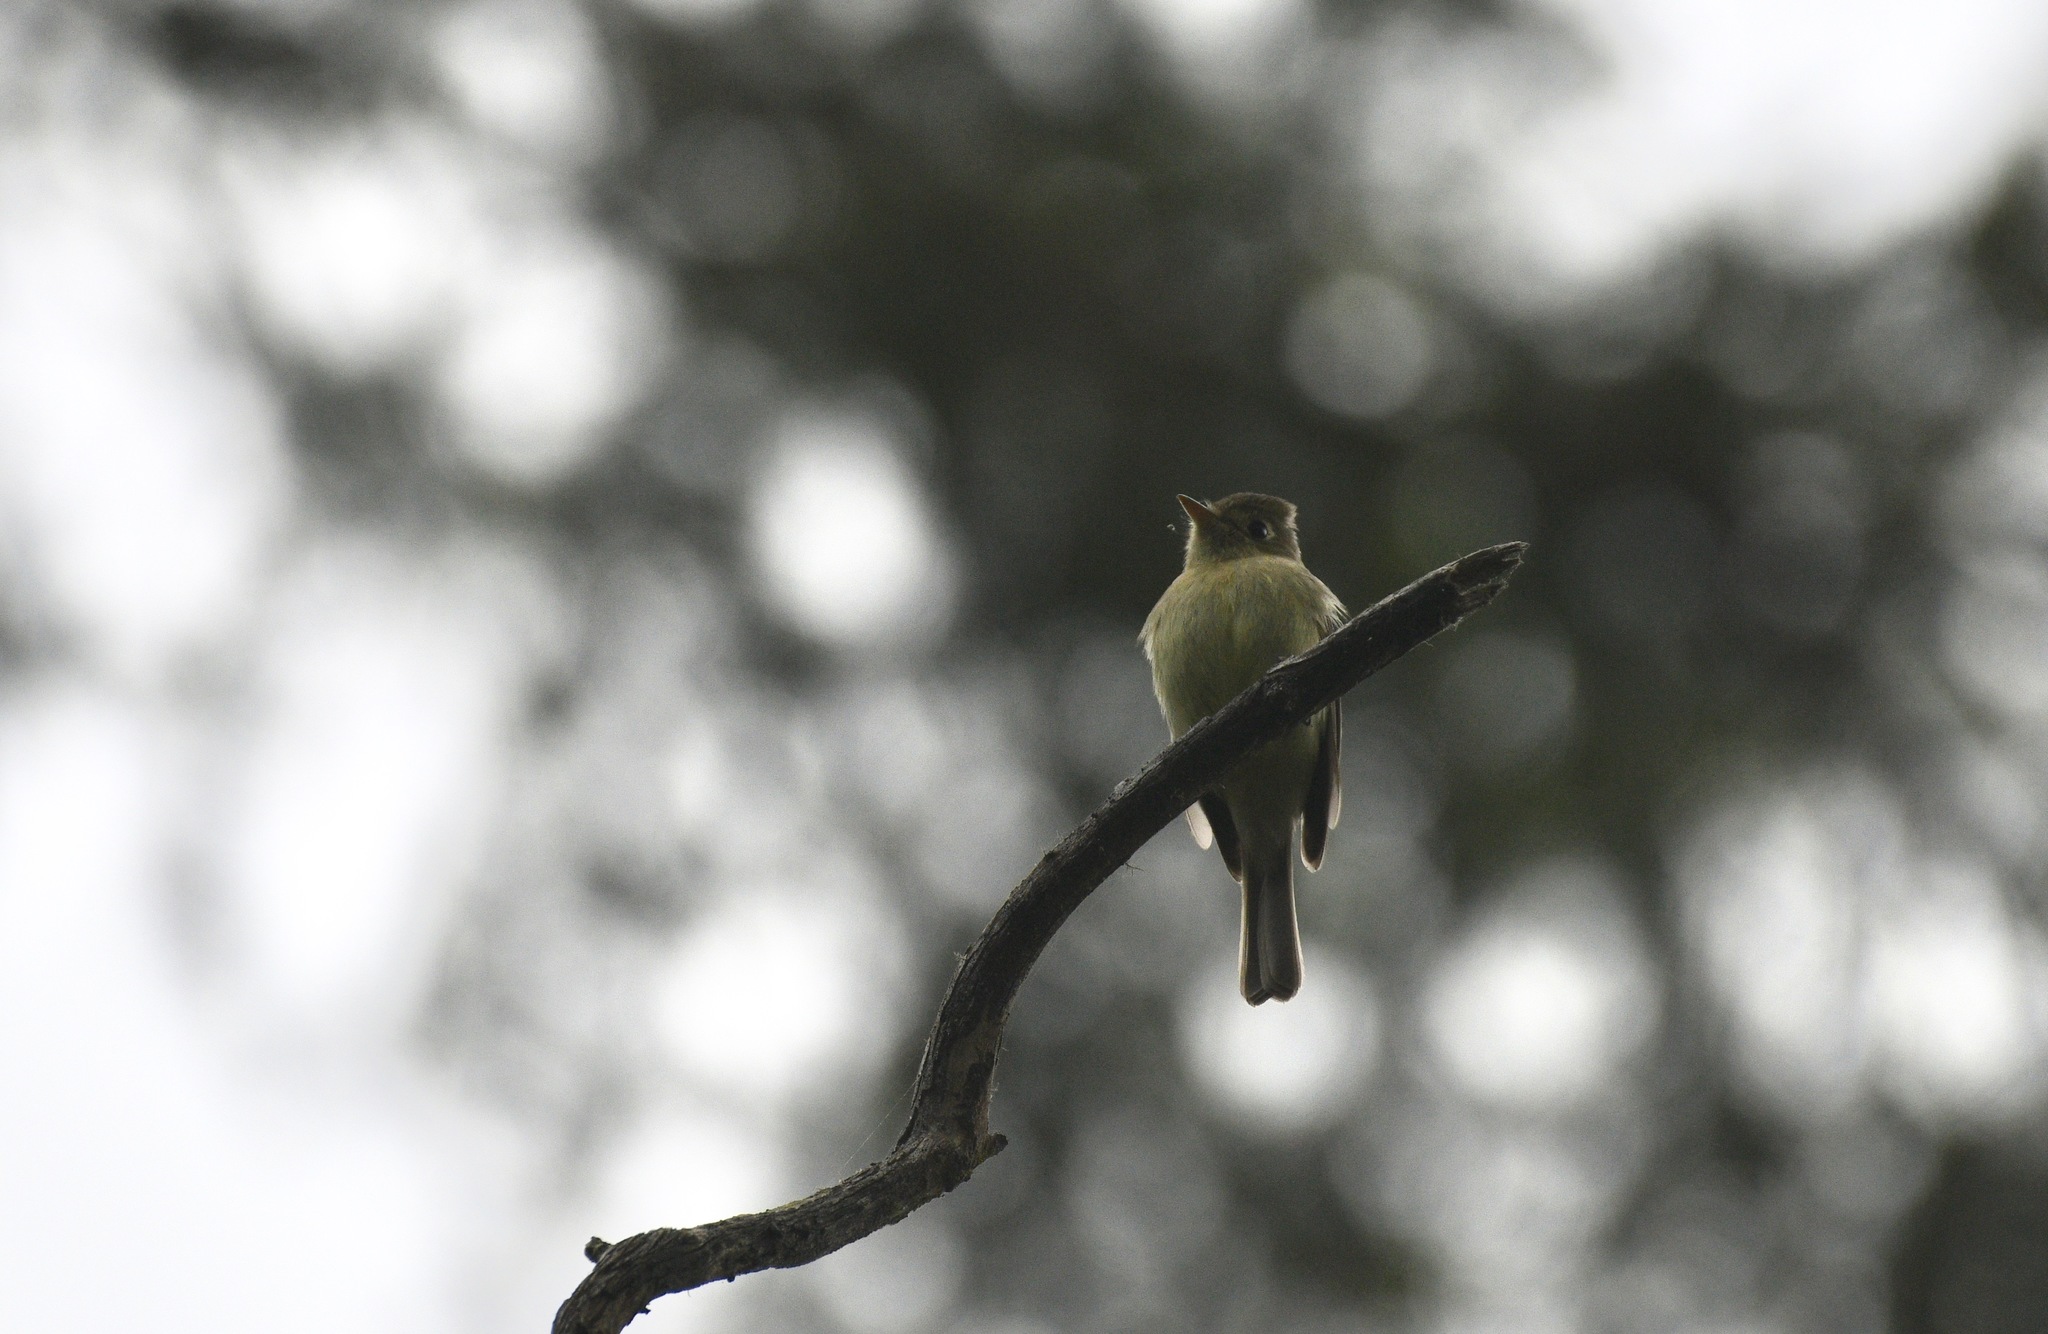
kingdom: Animalia
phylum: Chordata
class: Aves
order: Passeriformes
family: Tyrannidae
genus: Empidonax
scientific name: Empidonax difficilis
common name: Pacific-slope flycatcher
